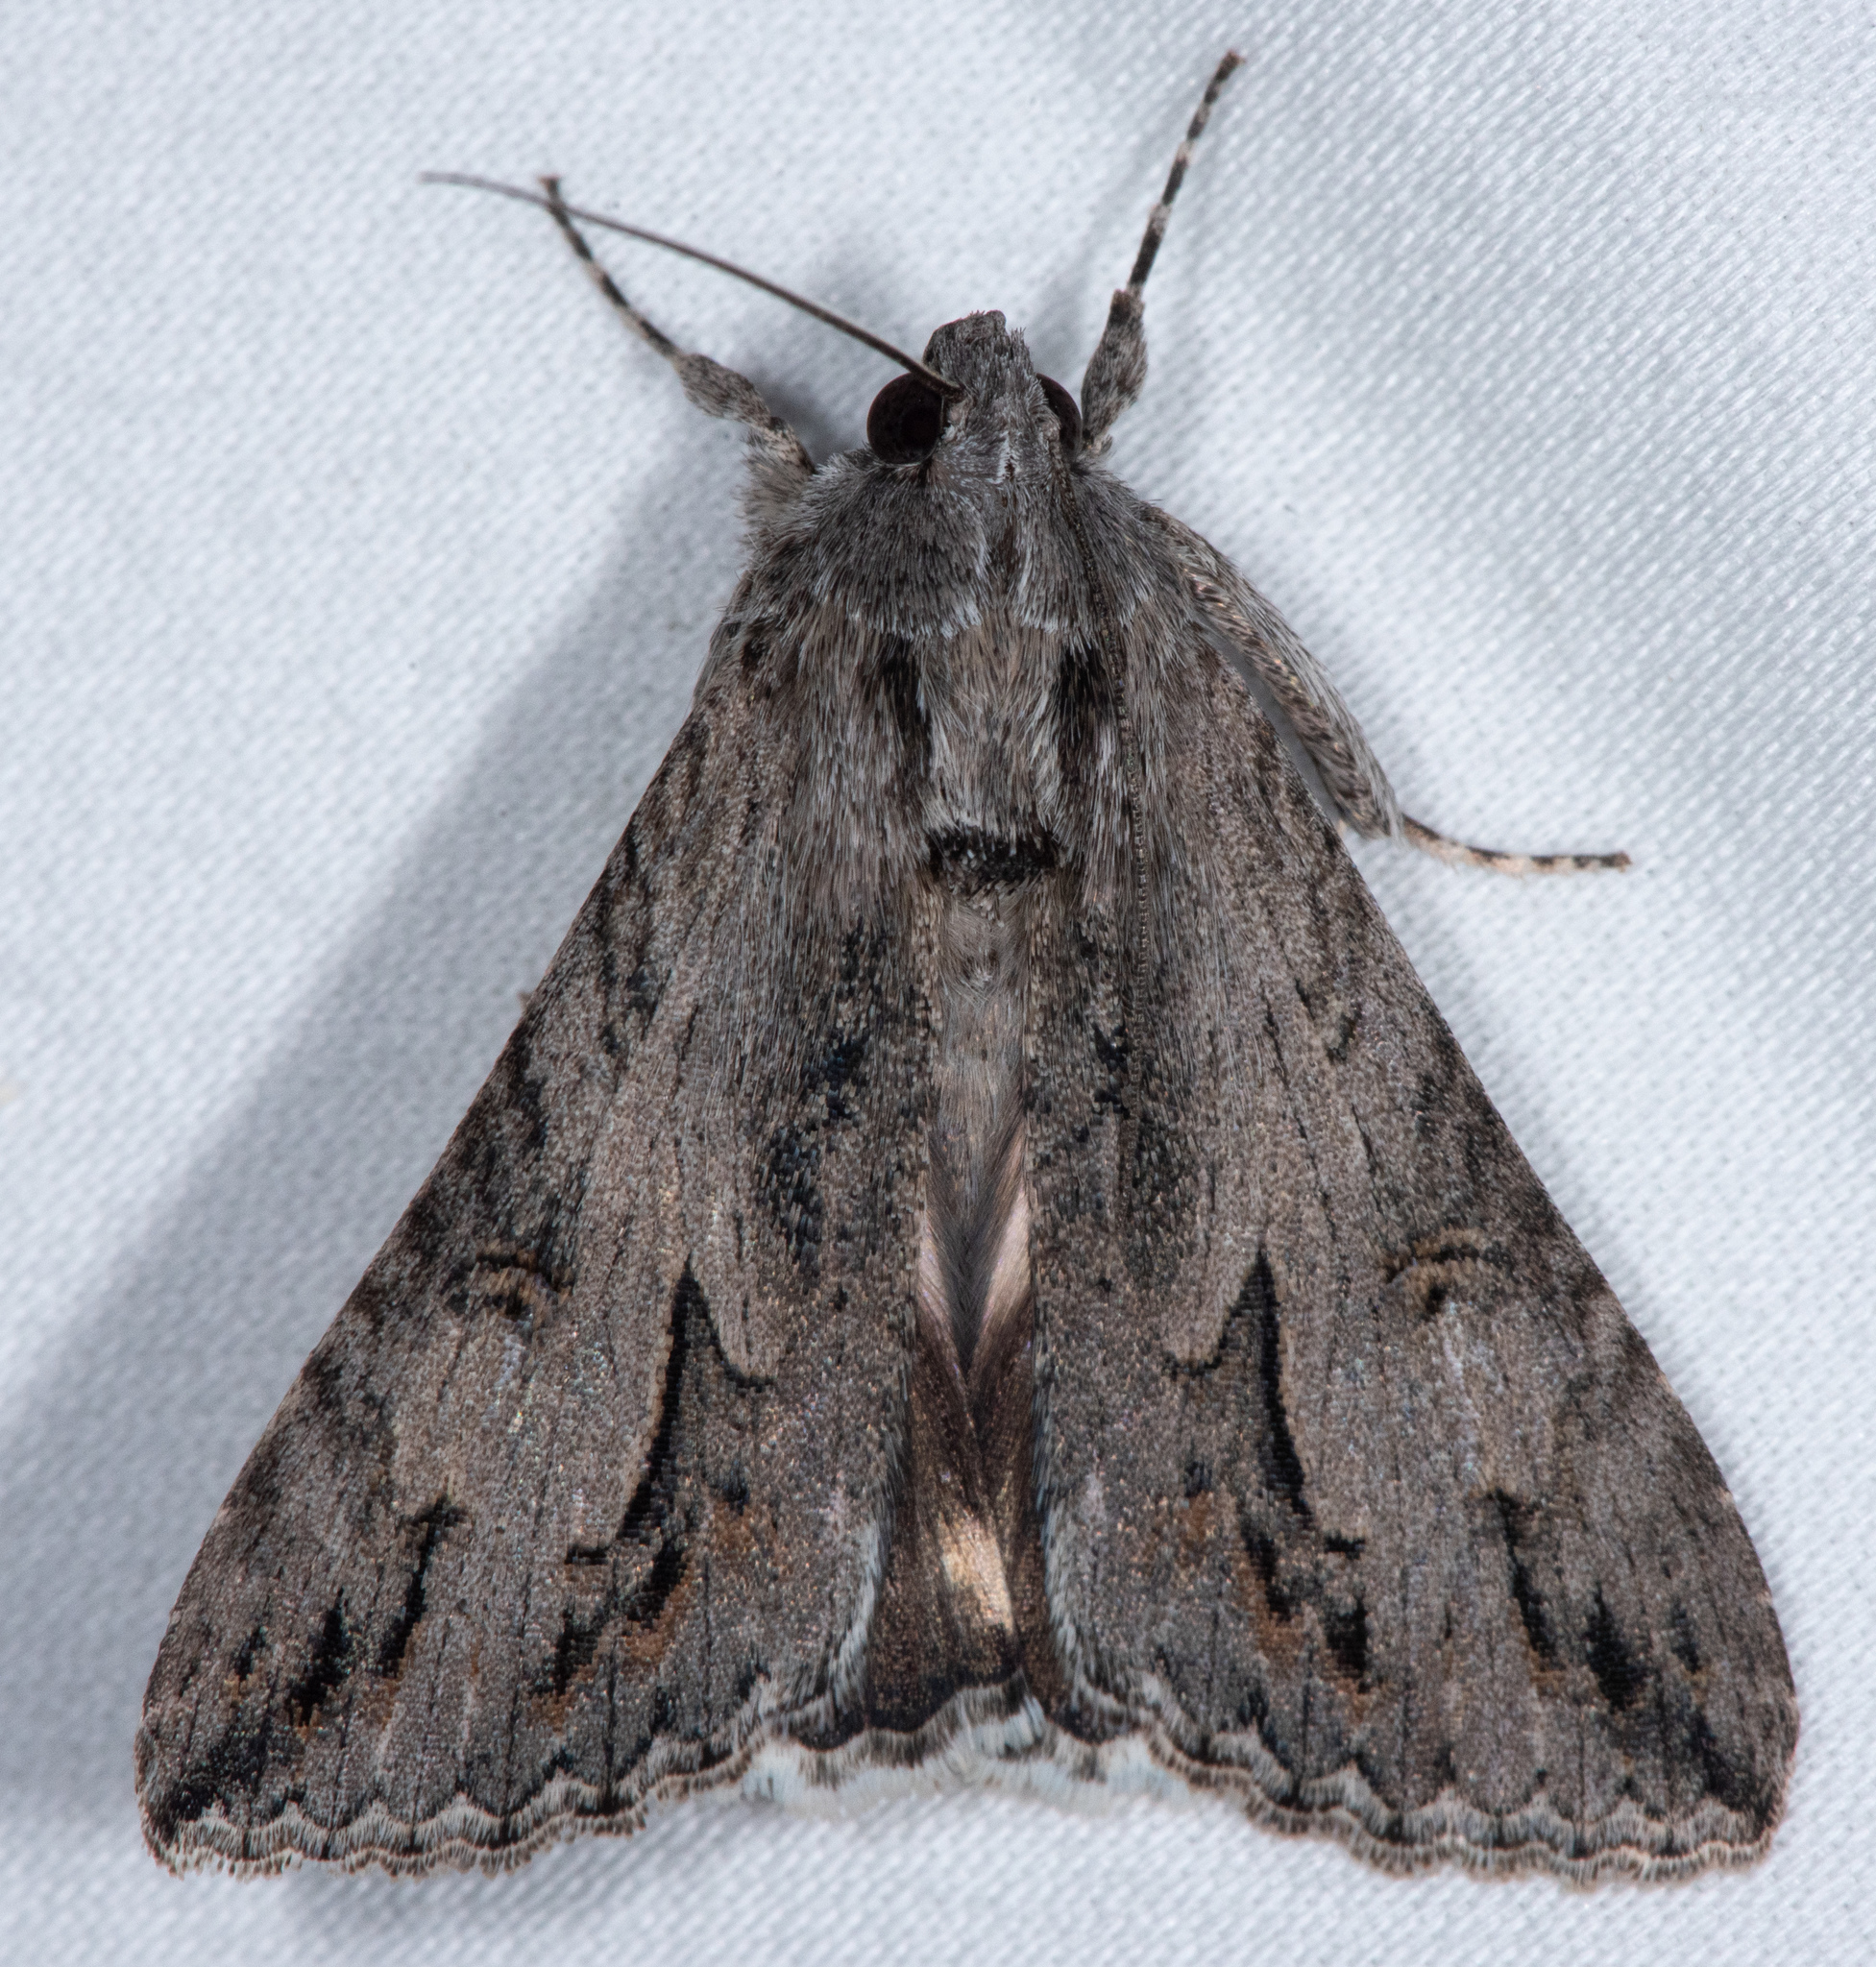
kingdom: Animalia
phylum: Arthropoda
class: Insecta
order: Lepidoptera
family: Erebidae
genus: Melipotis
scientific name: Melipotis jucunda
